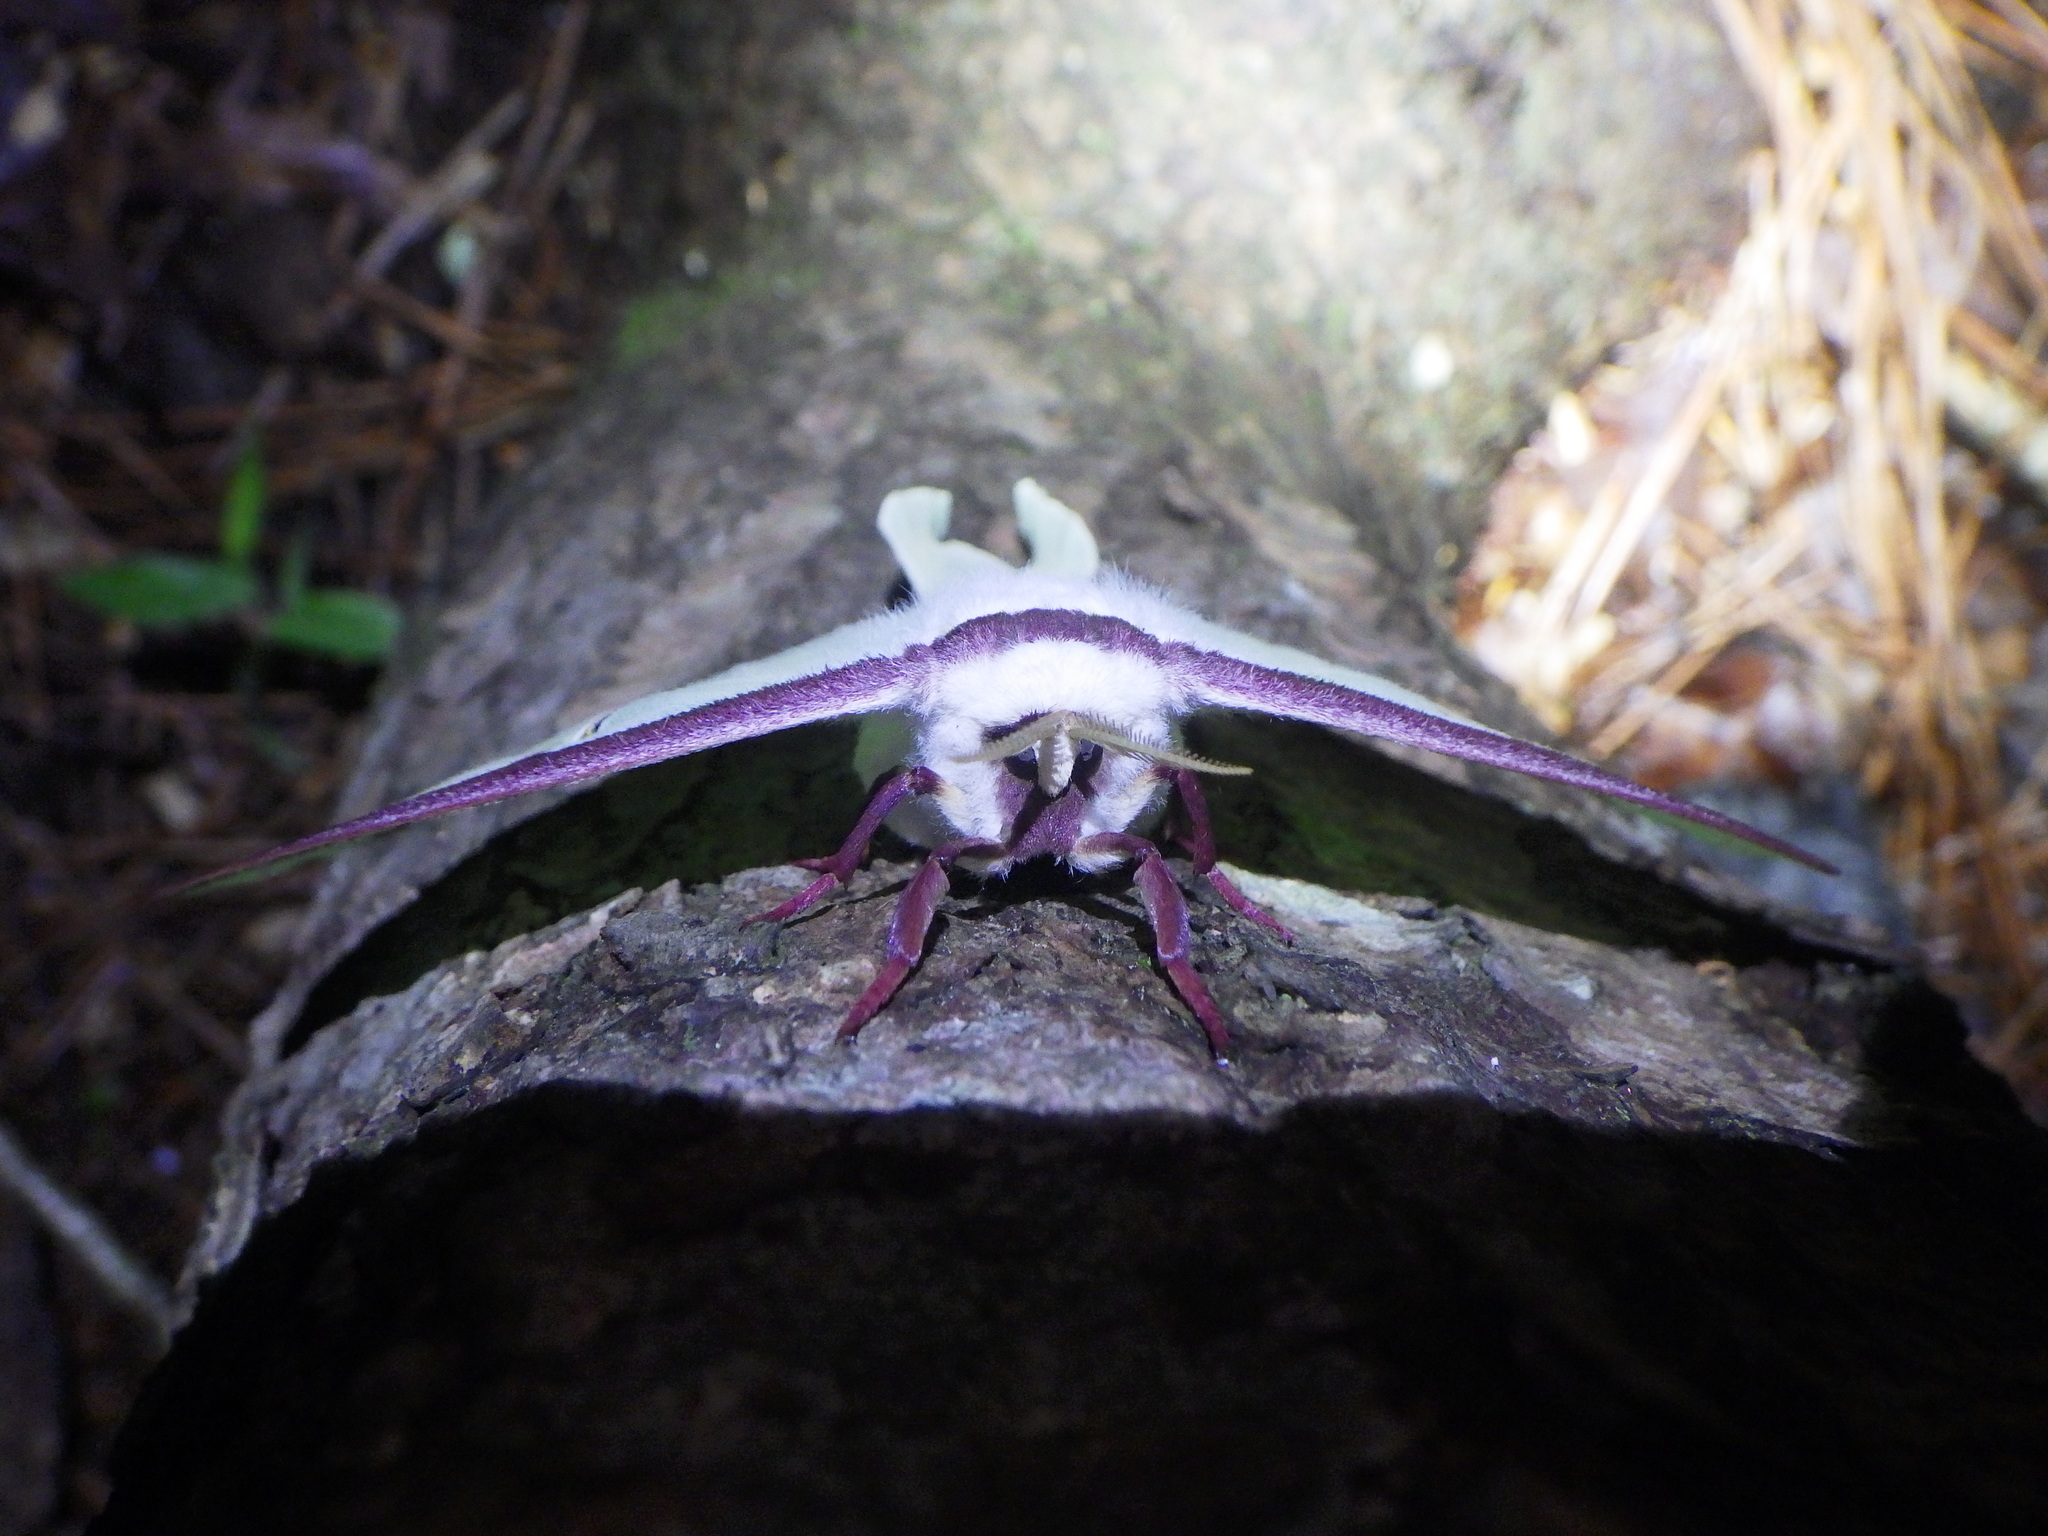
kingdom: Animalia
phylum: Arthropoda
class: Insecta
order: Lepidoptera
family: Saturniidae
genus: Actias
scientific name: Actias luna
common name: Luna moth
